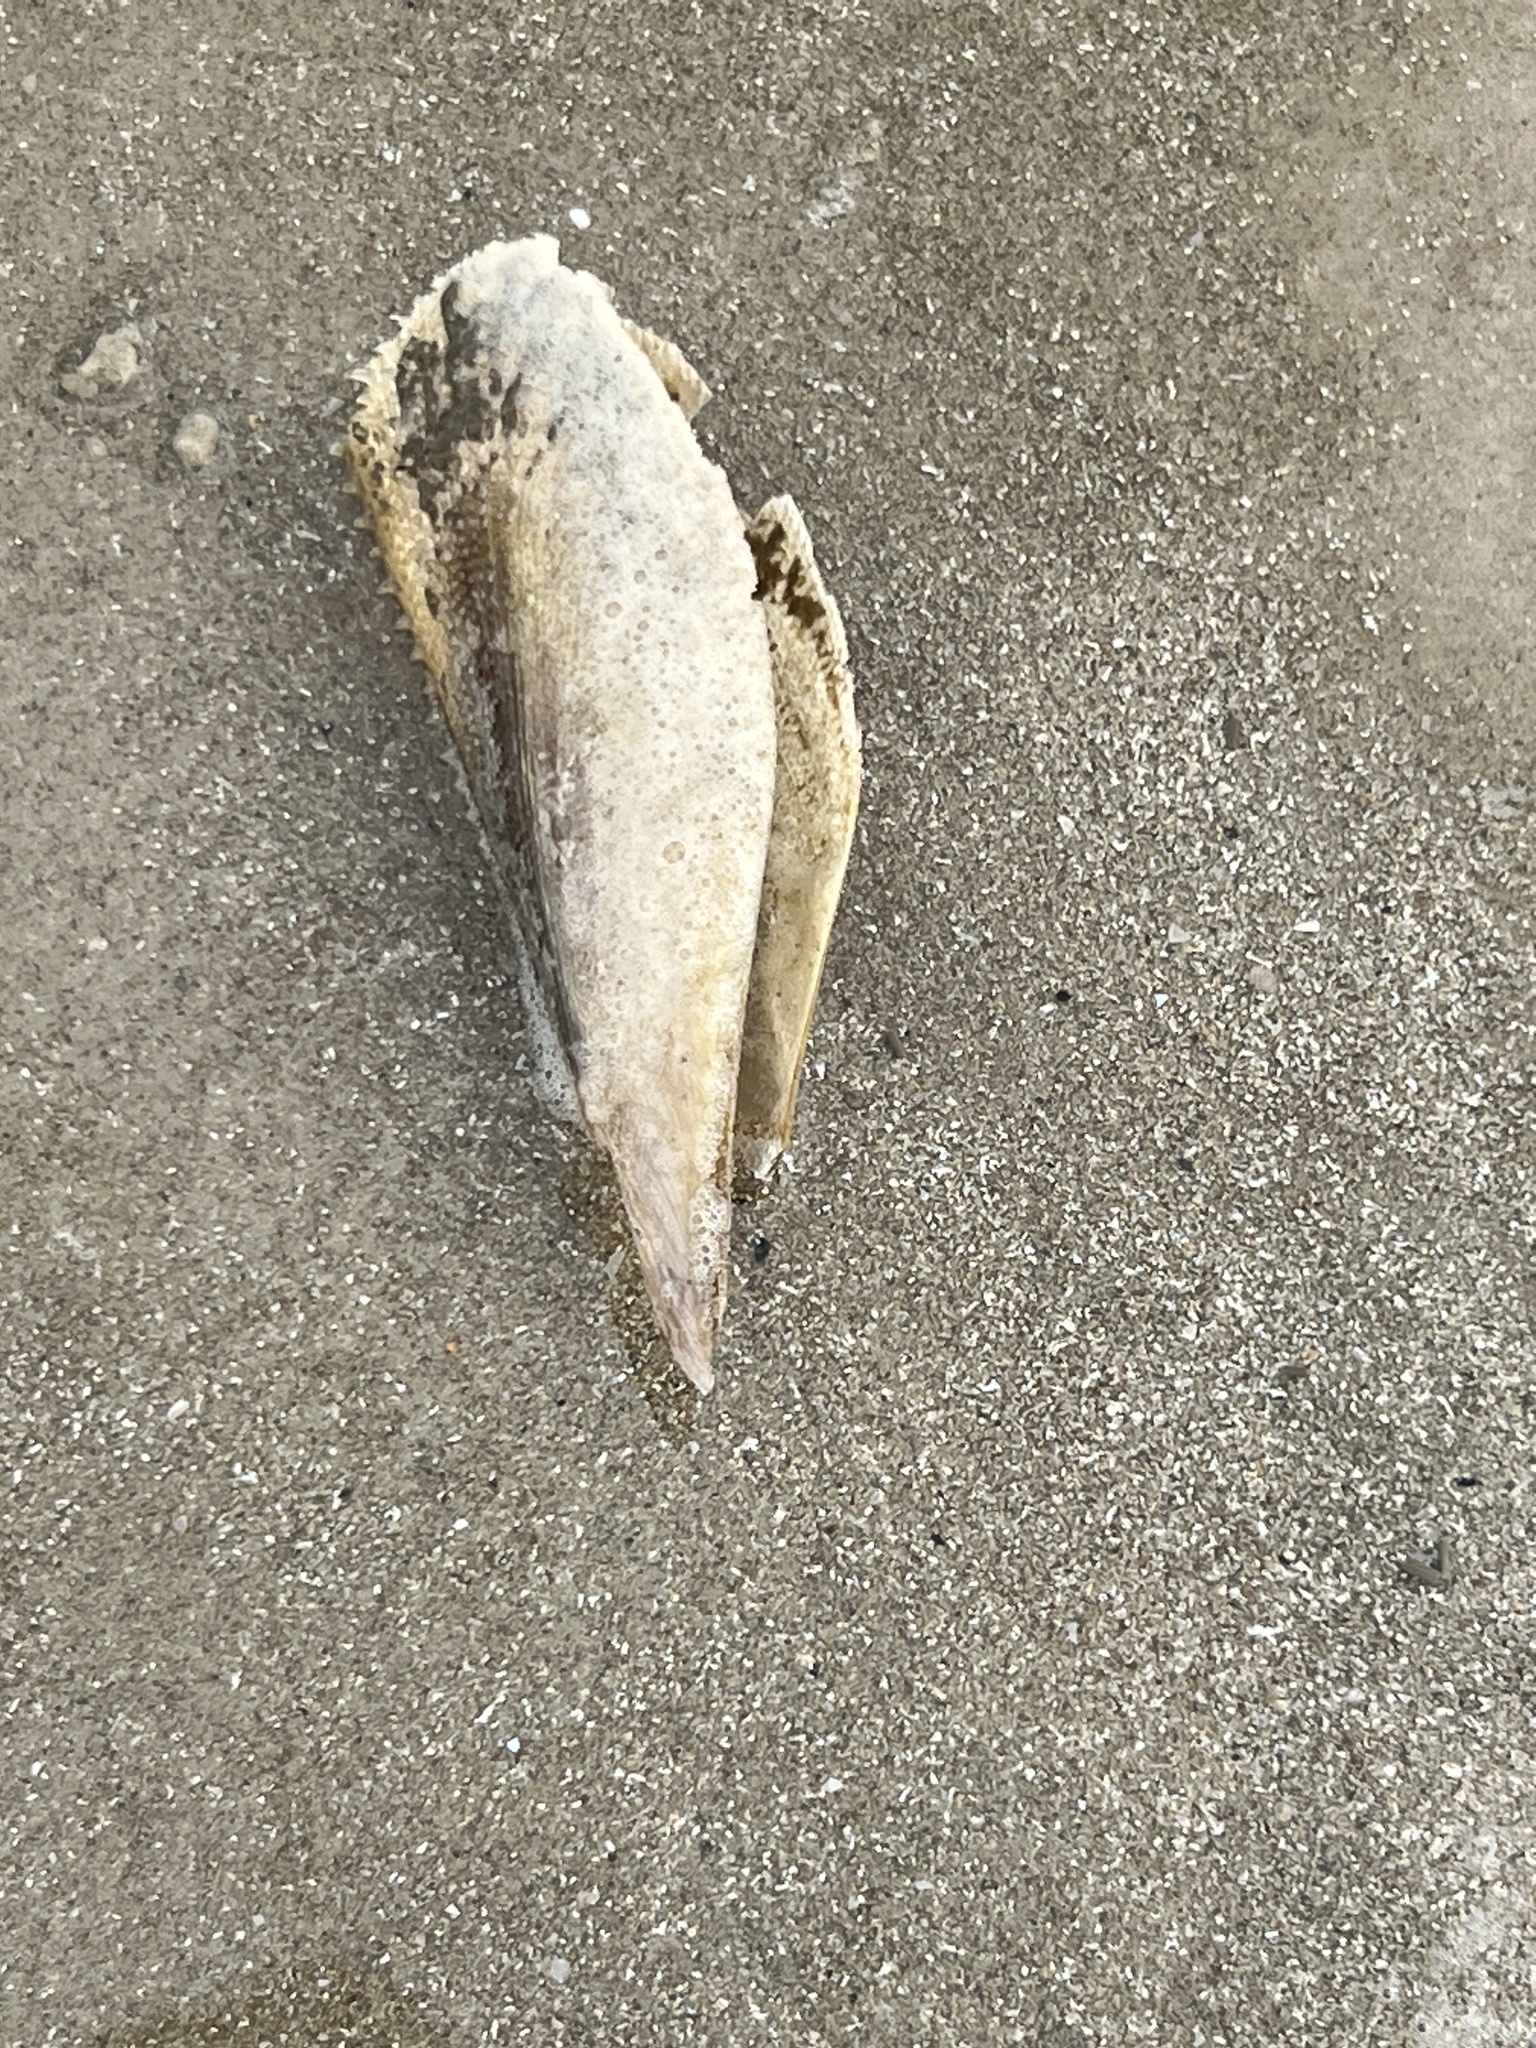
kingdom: Animalia
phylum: Mollusca
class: Bivalvia
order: Ostreida
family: Pinnidae
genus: Atrina
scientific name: Atrina serrata
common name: Saw-toothed penshell
